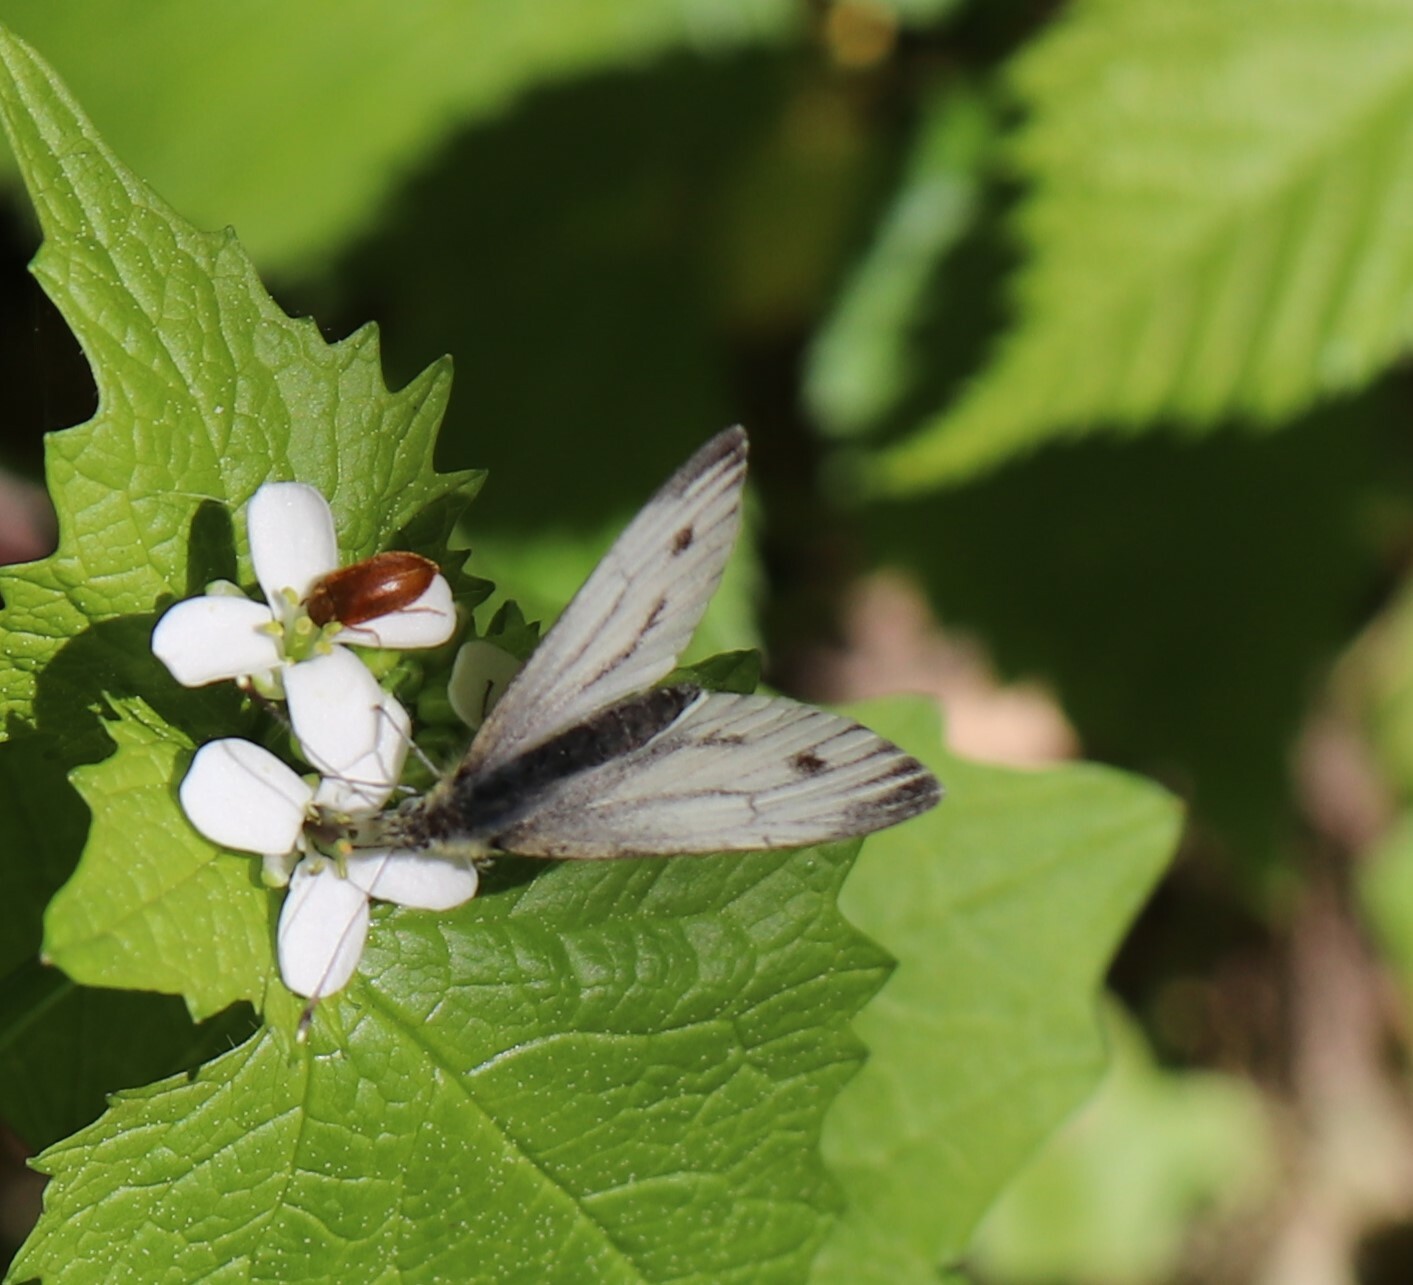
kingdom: Animalia
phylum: Arthropoda
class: Insecta
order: Lepidoptera
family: Pieridae
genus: Pieris
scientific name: Pieris napi
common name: Green-veined white
